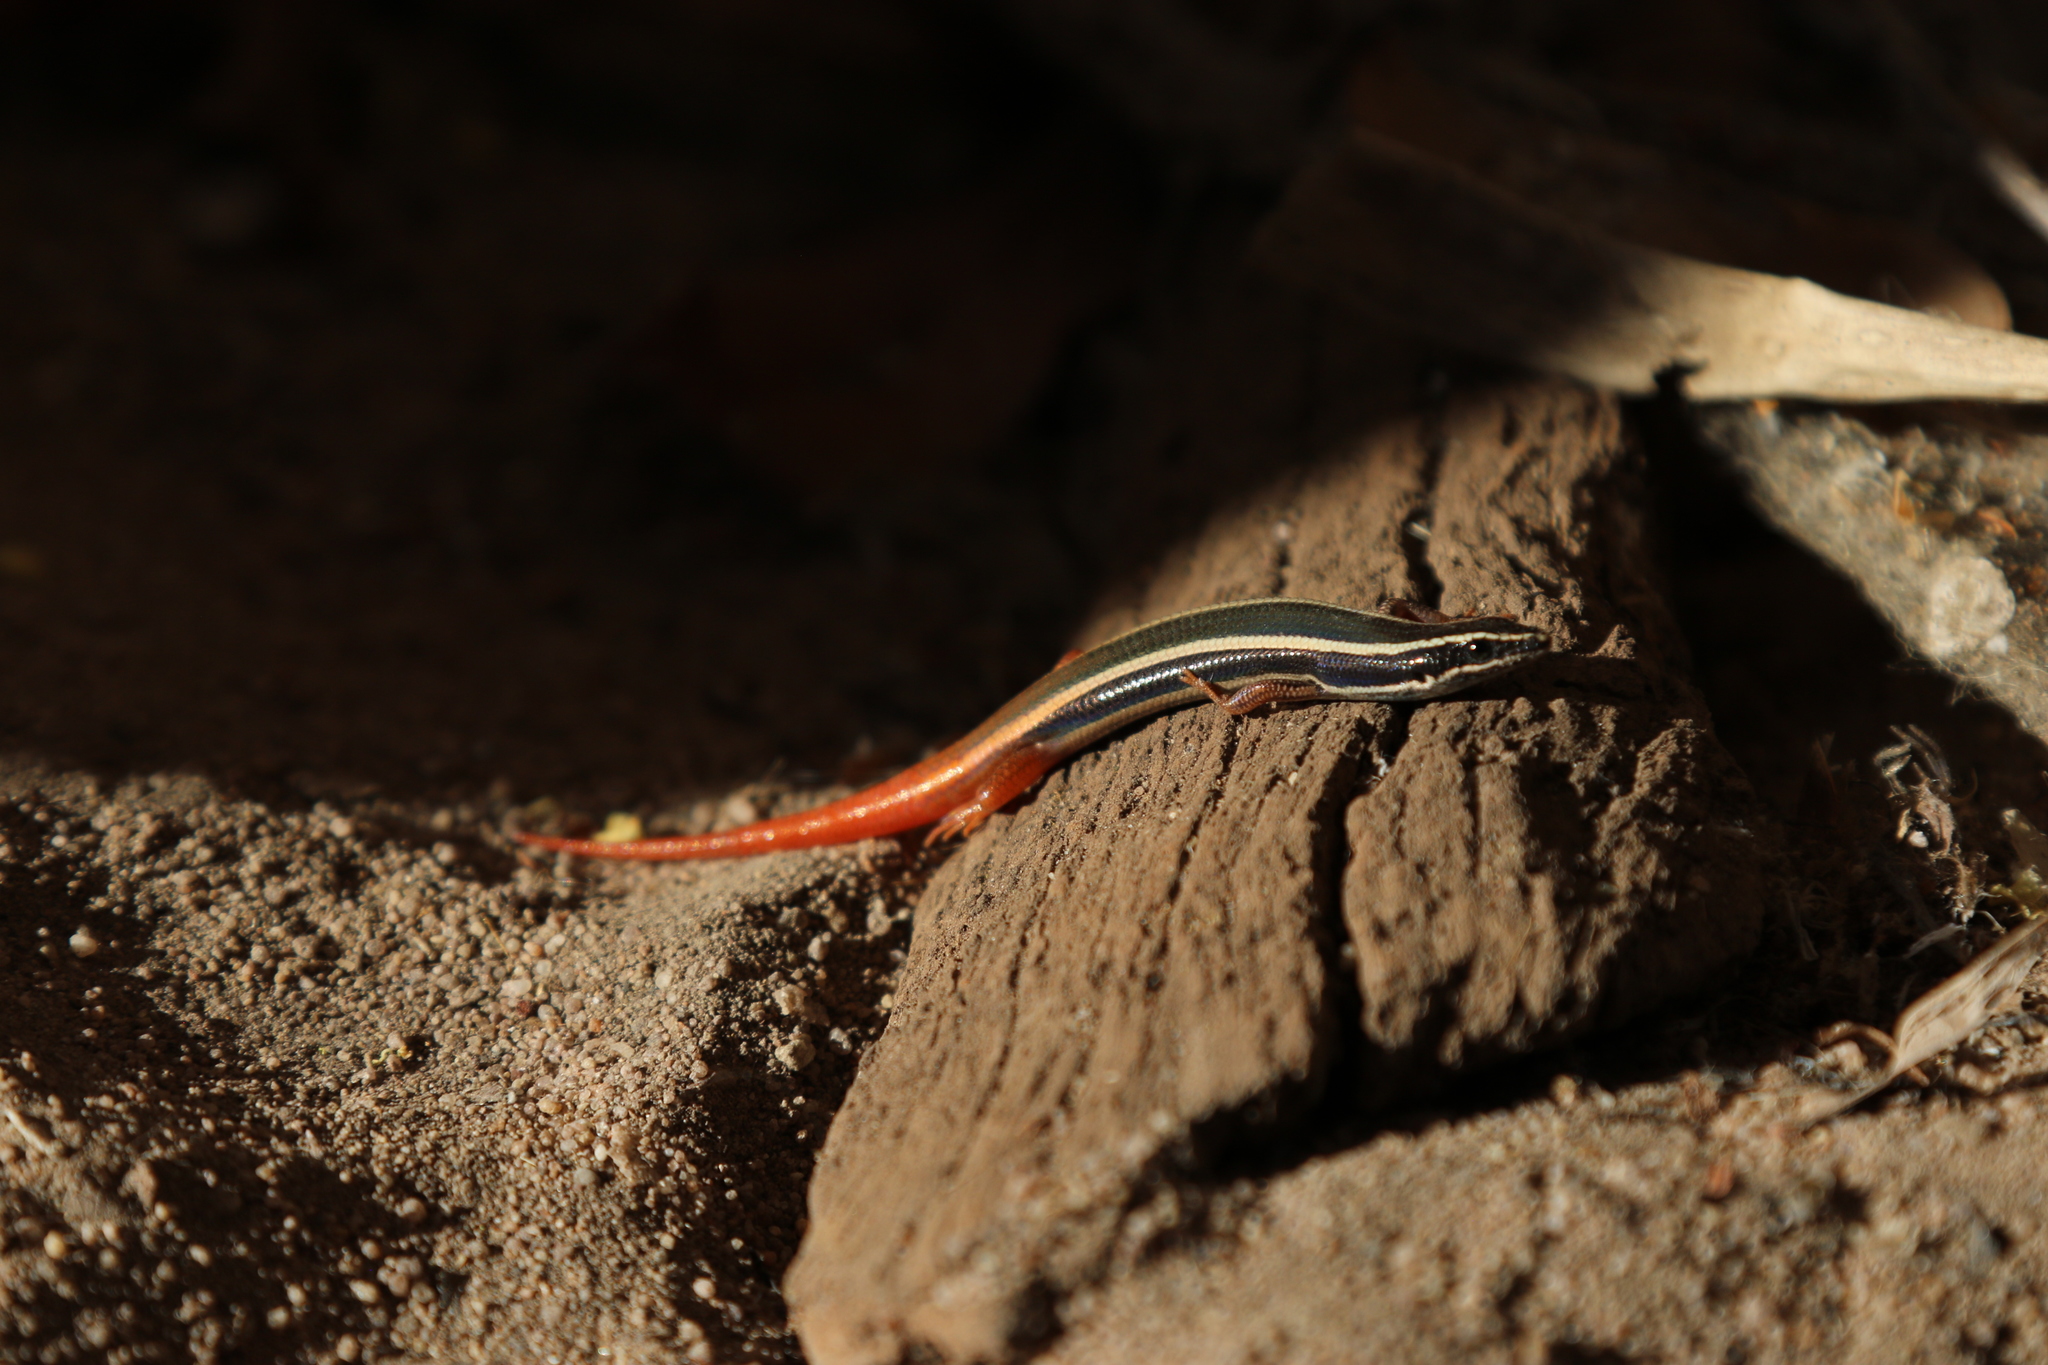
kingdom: Animalia
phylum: Chordata
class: Squamata
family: Scincidae
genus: Morethia
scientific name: Morethia ruficauda
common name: Lined firetail skink
